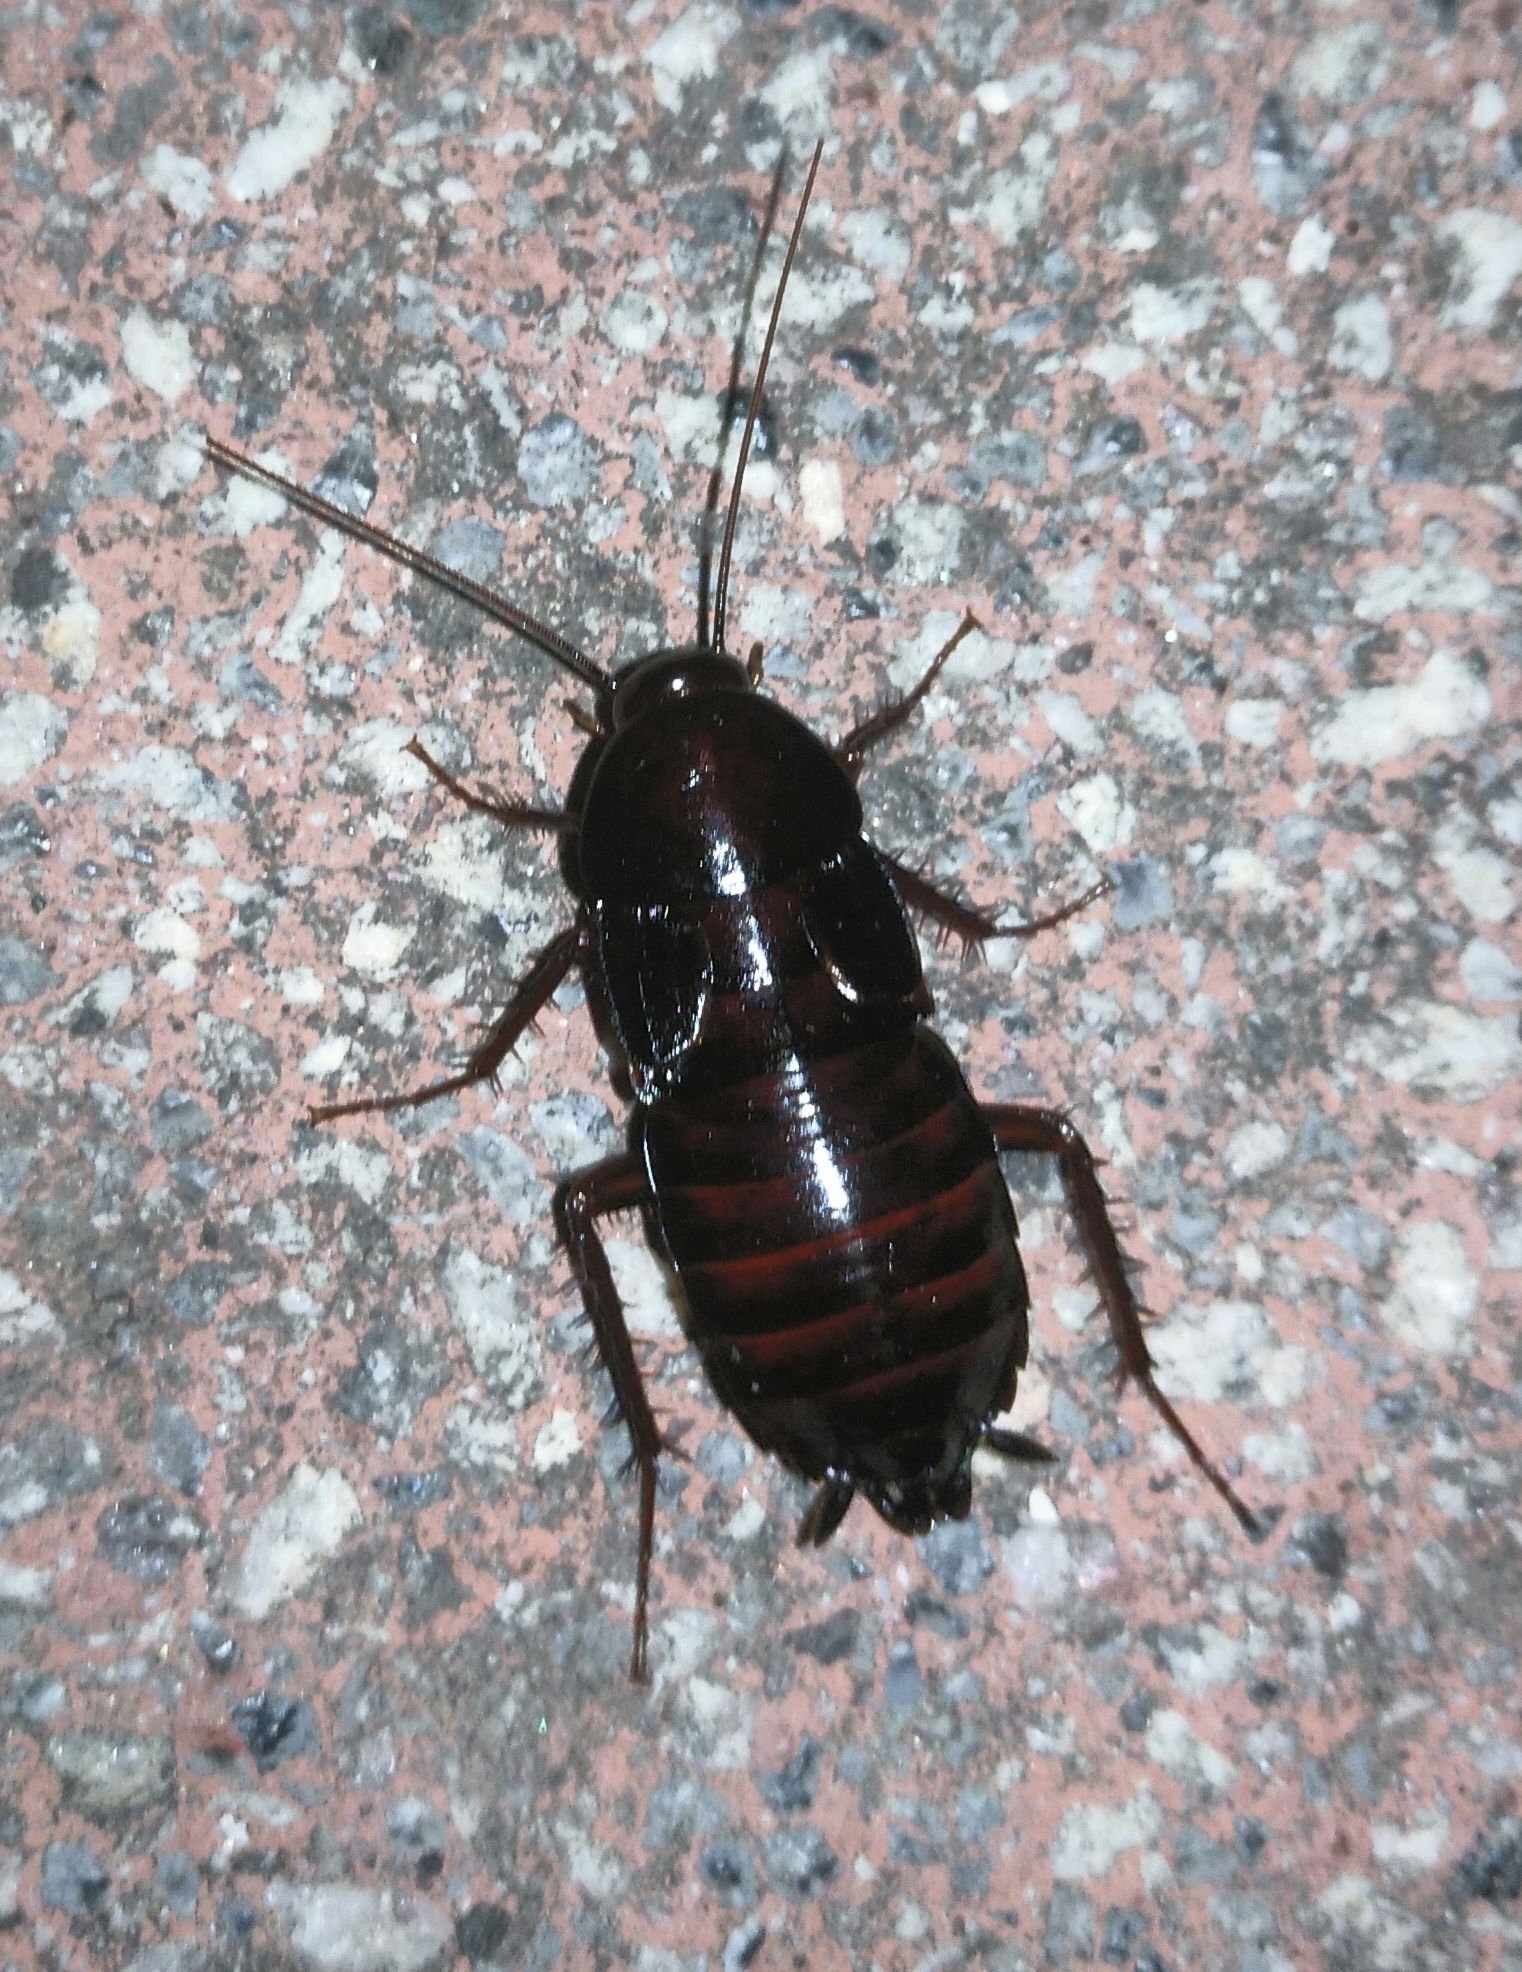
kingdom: Animalia
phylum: Arthropoda
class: Insecta
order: Blattodea
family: Blattidae
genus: Blatta
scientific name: Blatta orientalis
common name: Oriental cockroach
